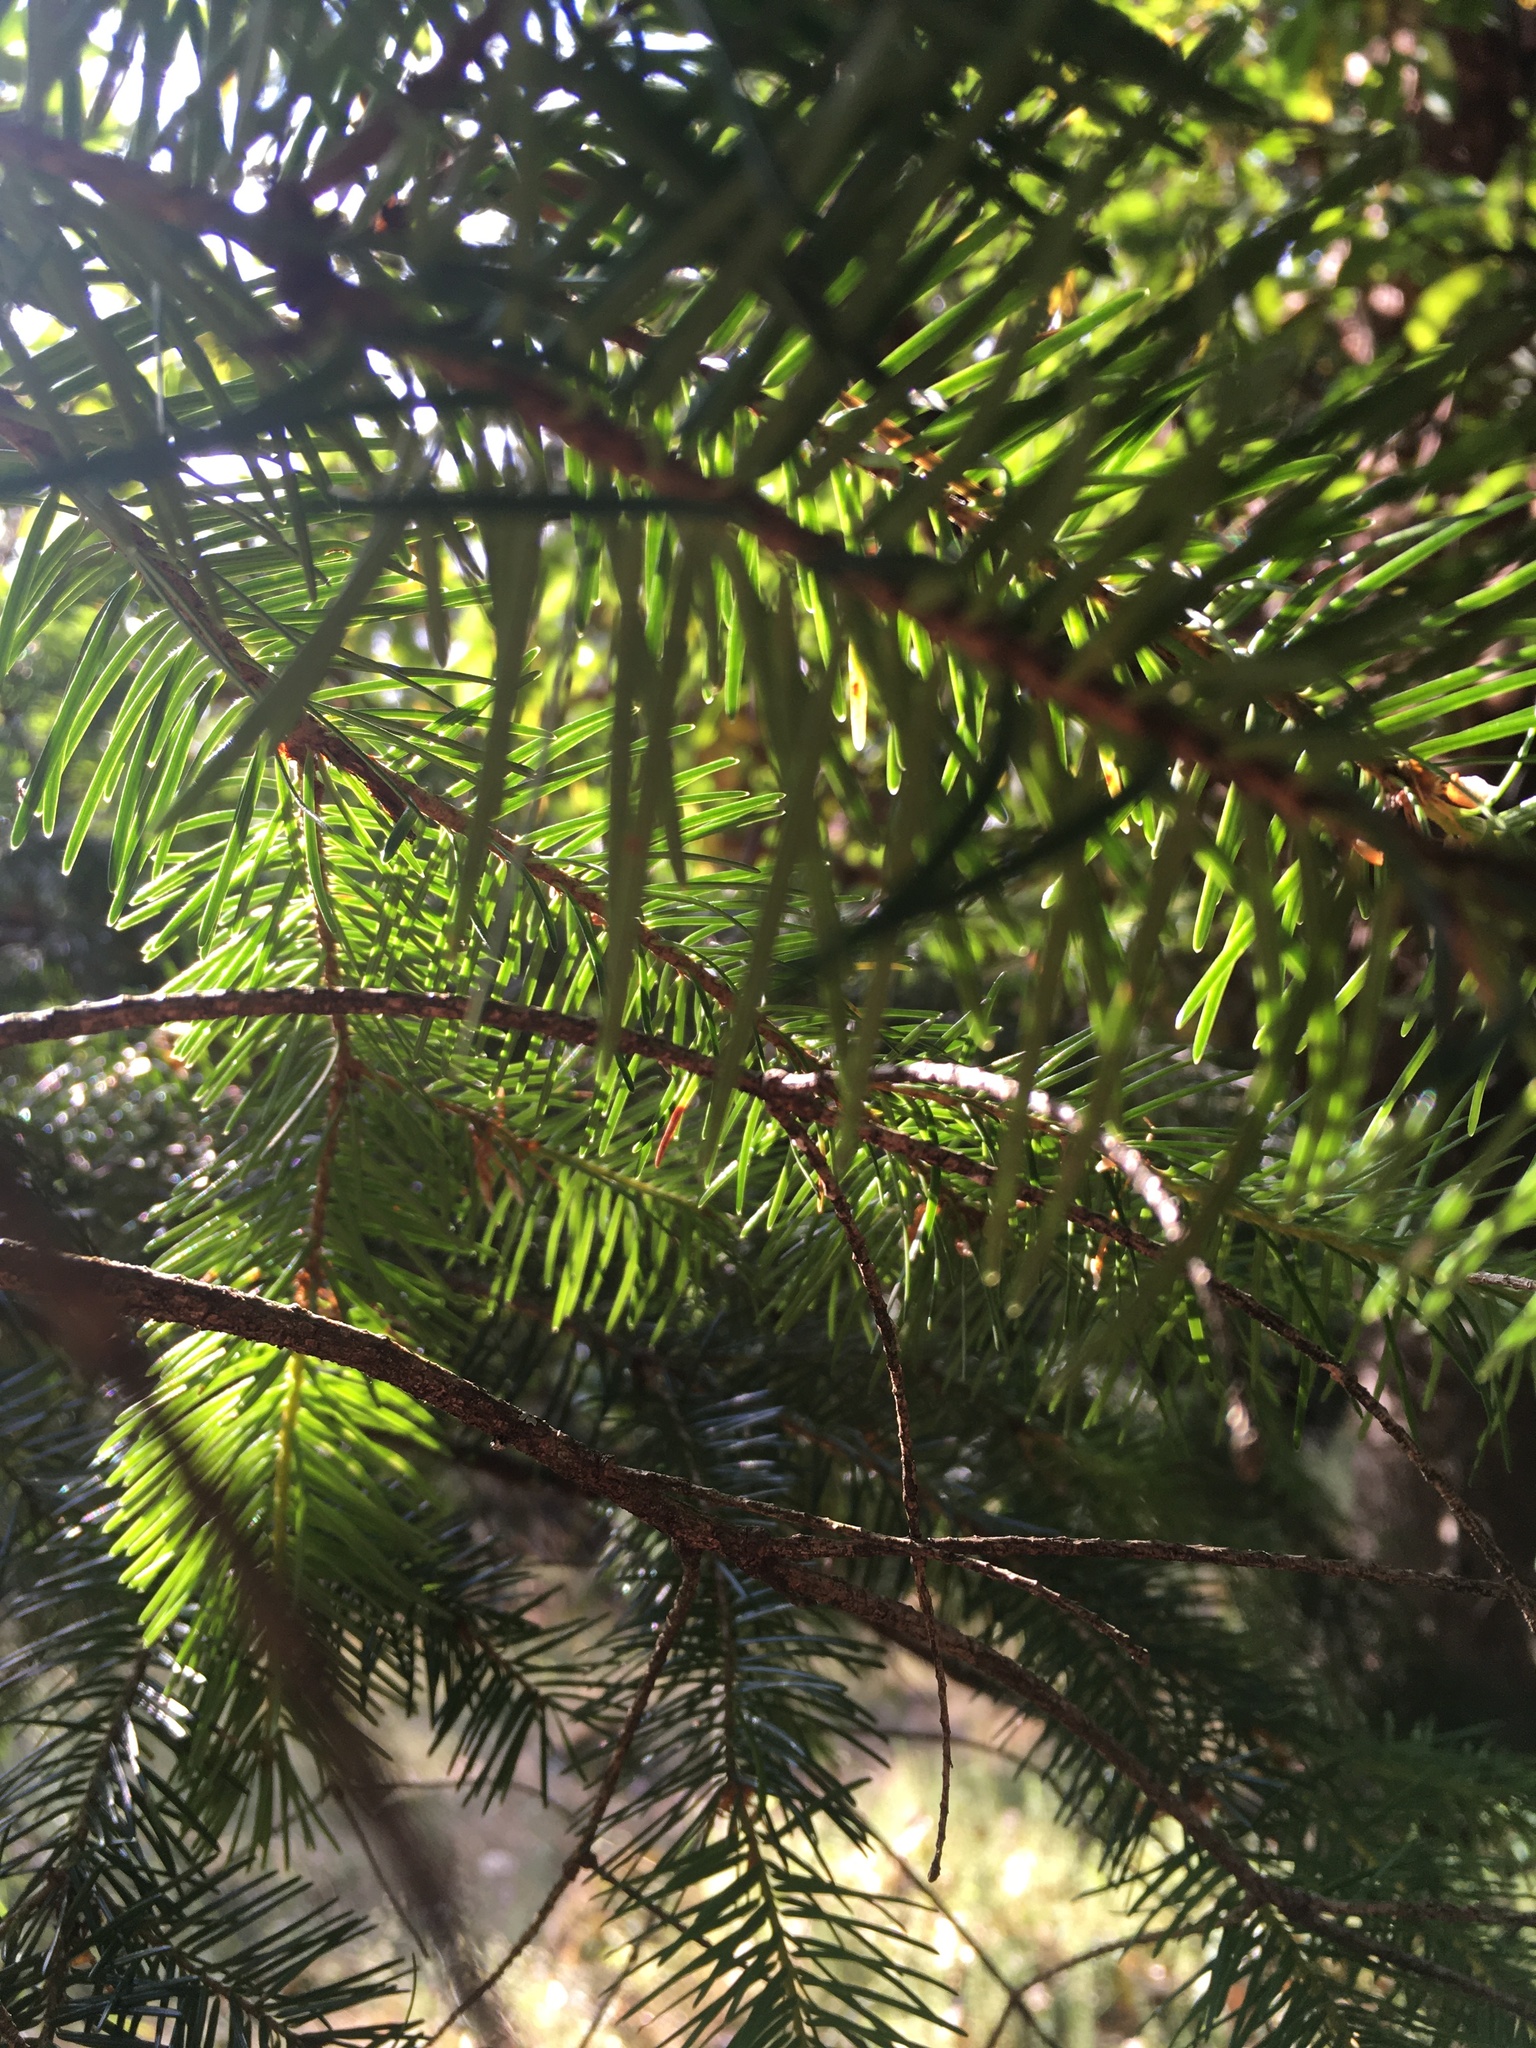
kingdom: Plantae
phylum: Tracheophyta
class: Pinopsida
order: Pinales
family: Pinaceae
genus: Pseudotsuga
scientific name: Pseudotsuga menziesii
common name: Douglas fir
